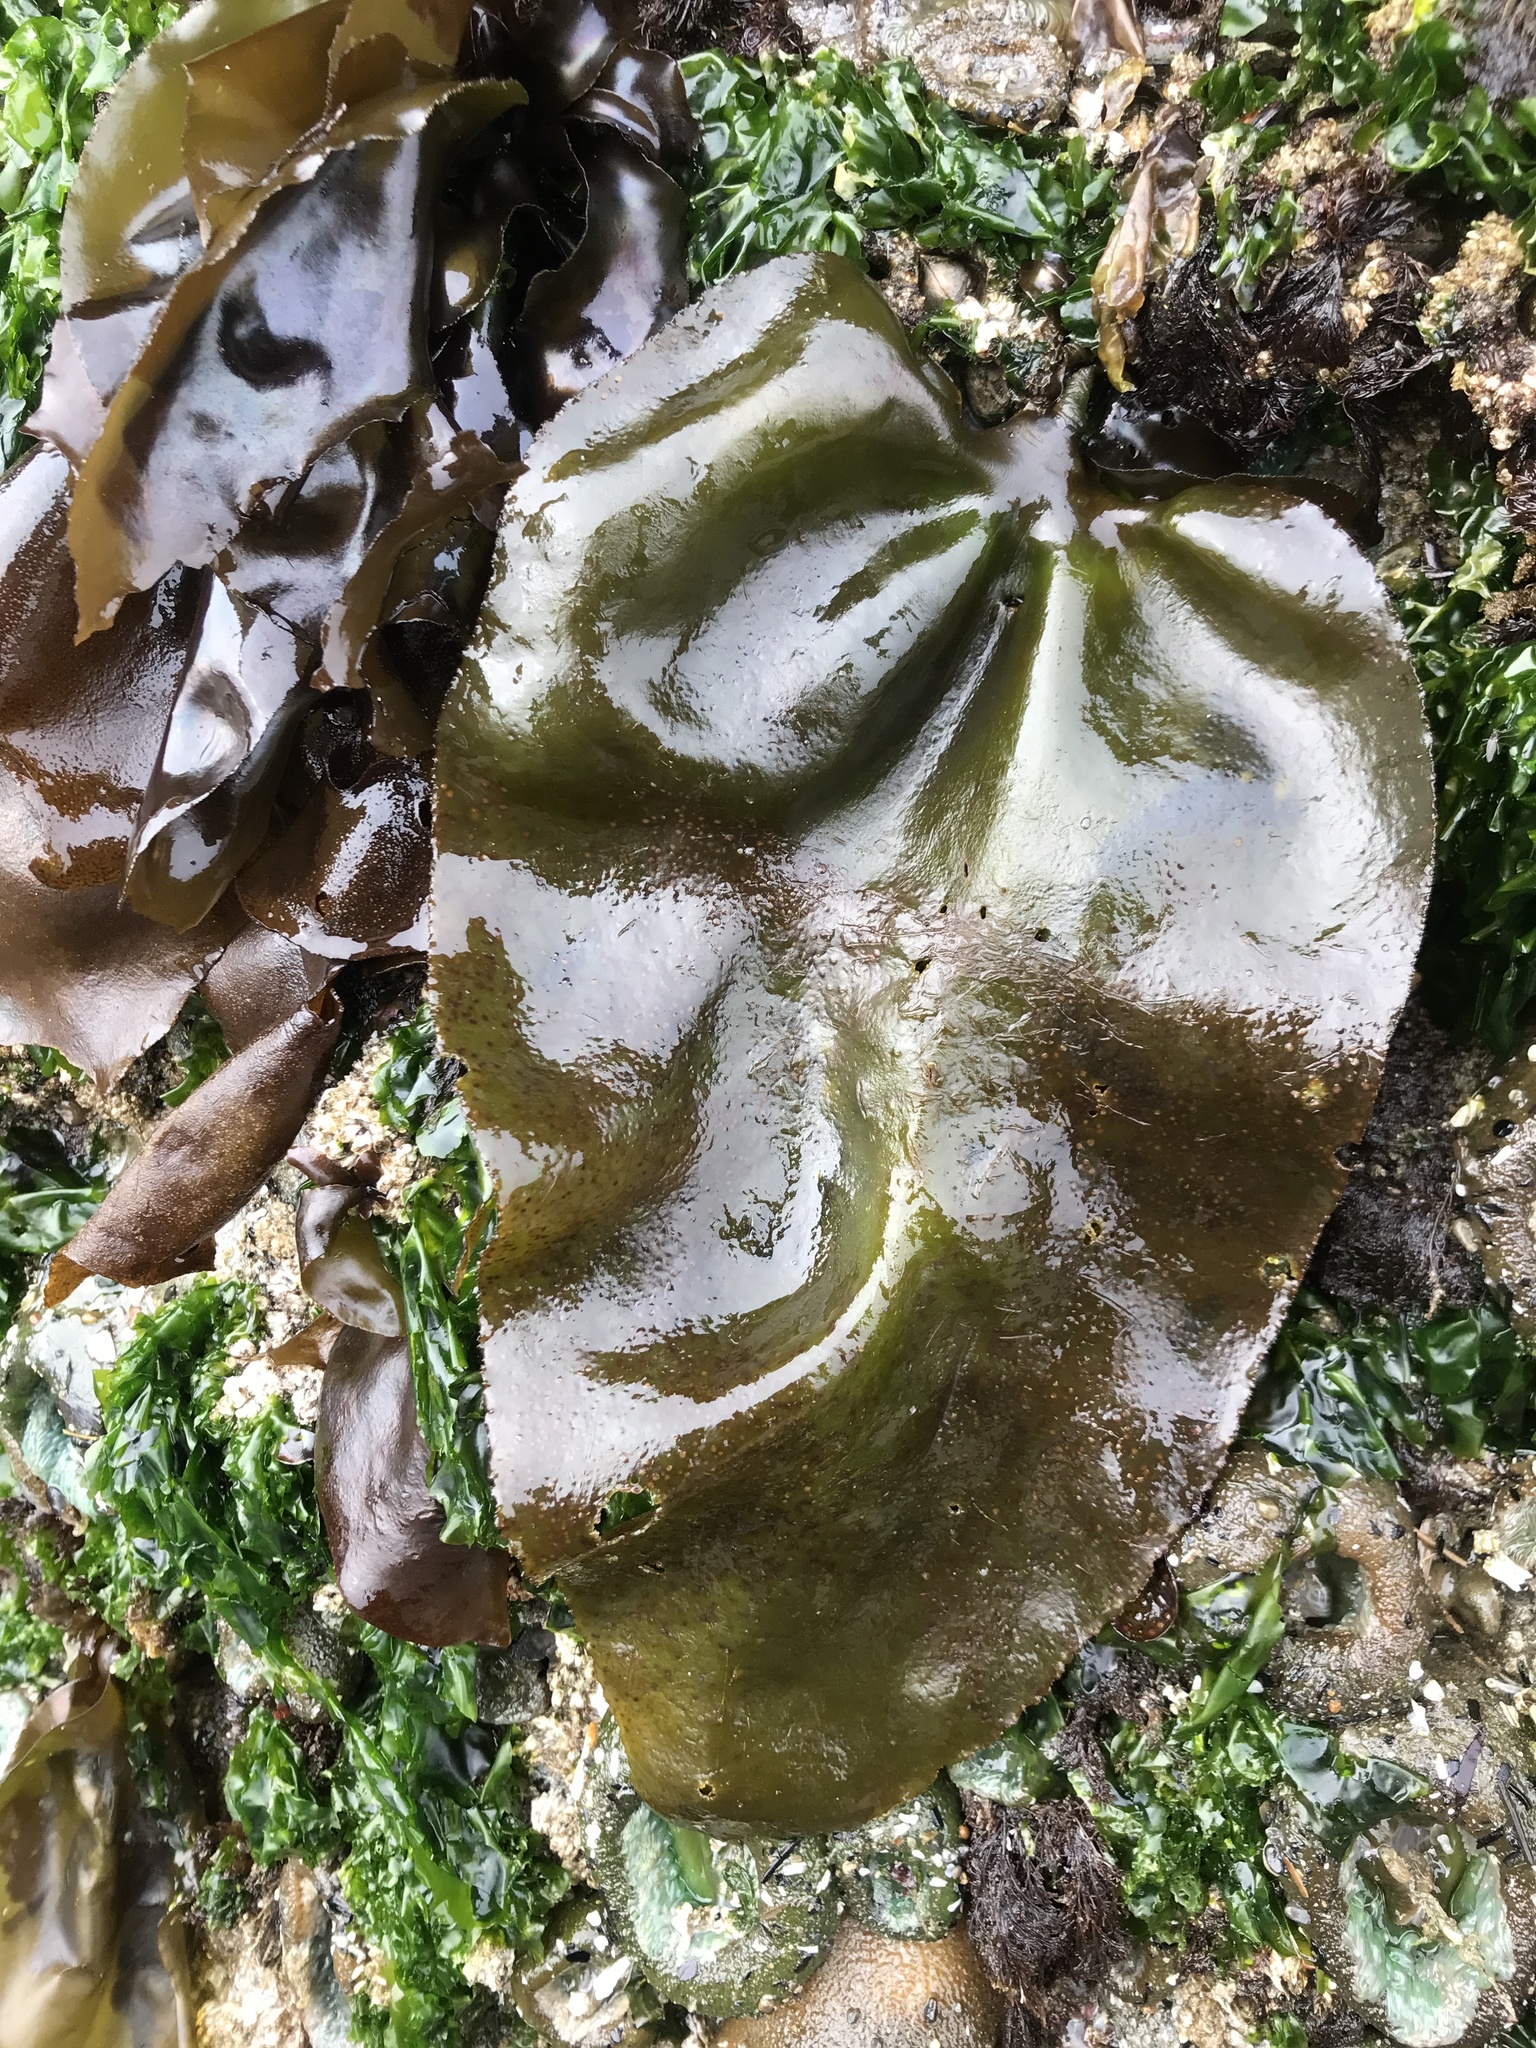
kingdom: Plantae
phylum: Rhodophyta
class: Florideophyceae
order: Gigartinales
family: Gigartinaceae
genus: Mazzaella
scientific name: Mazzaella flaccida
